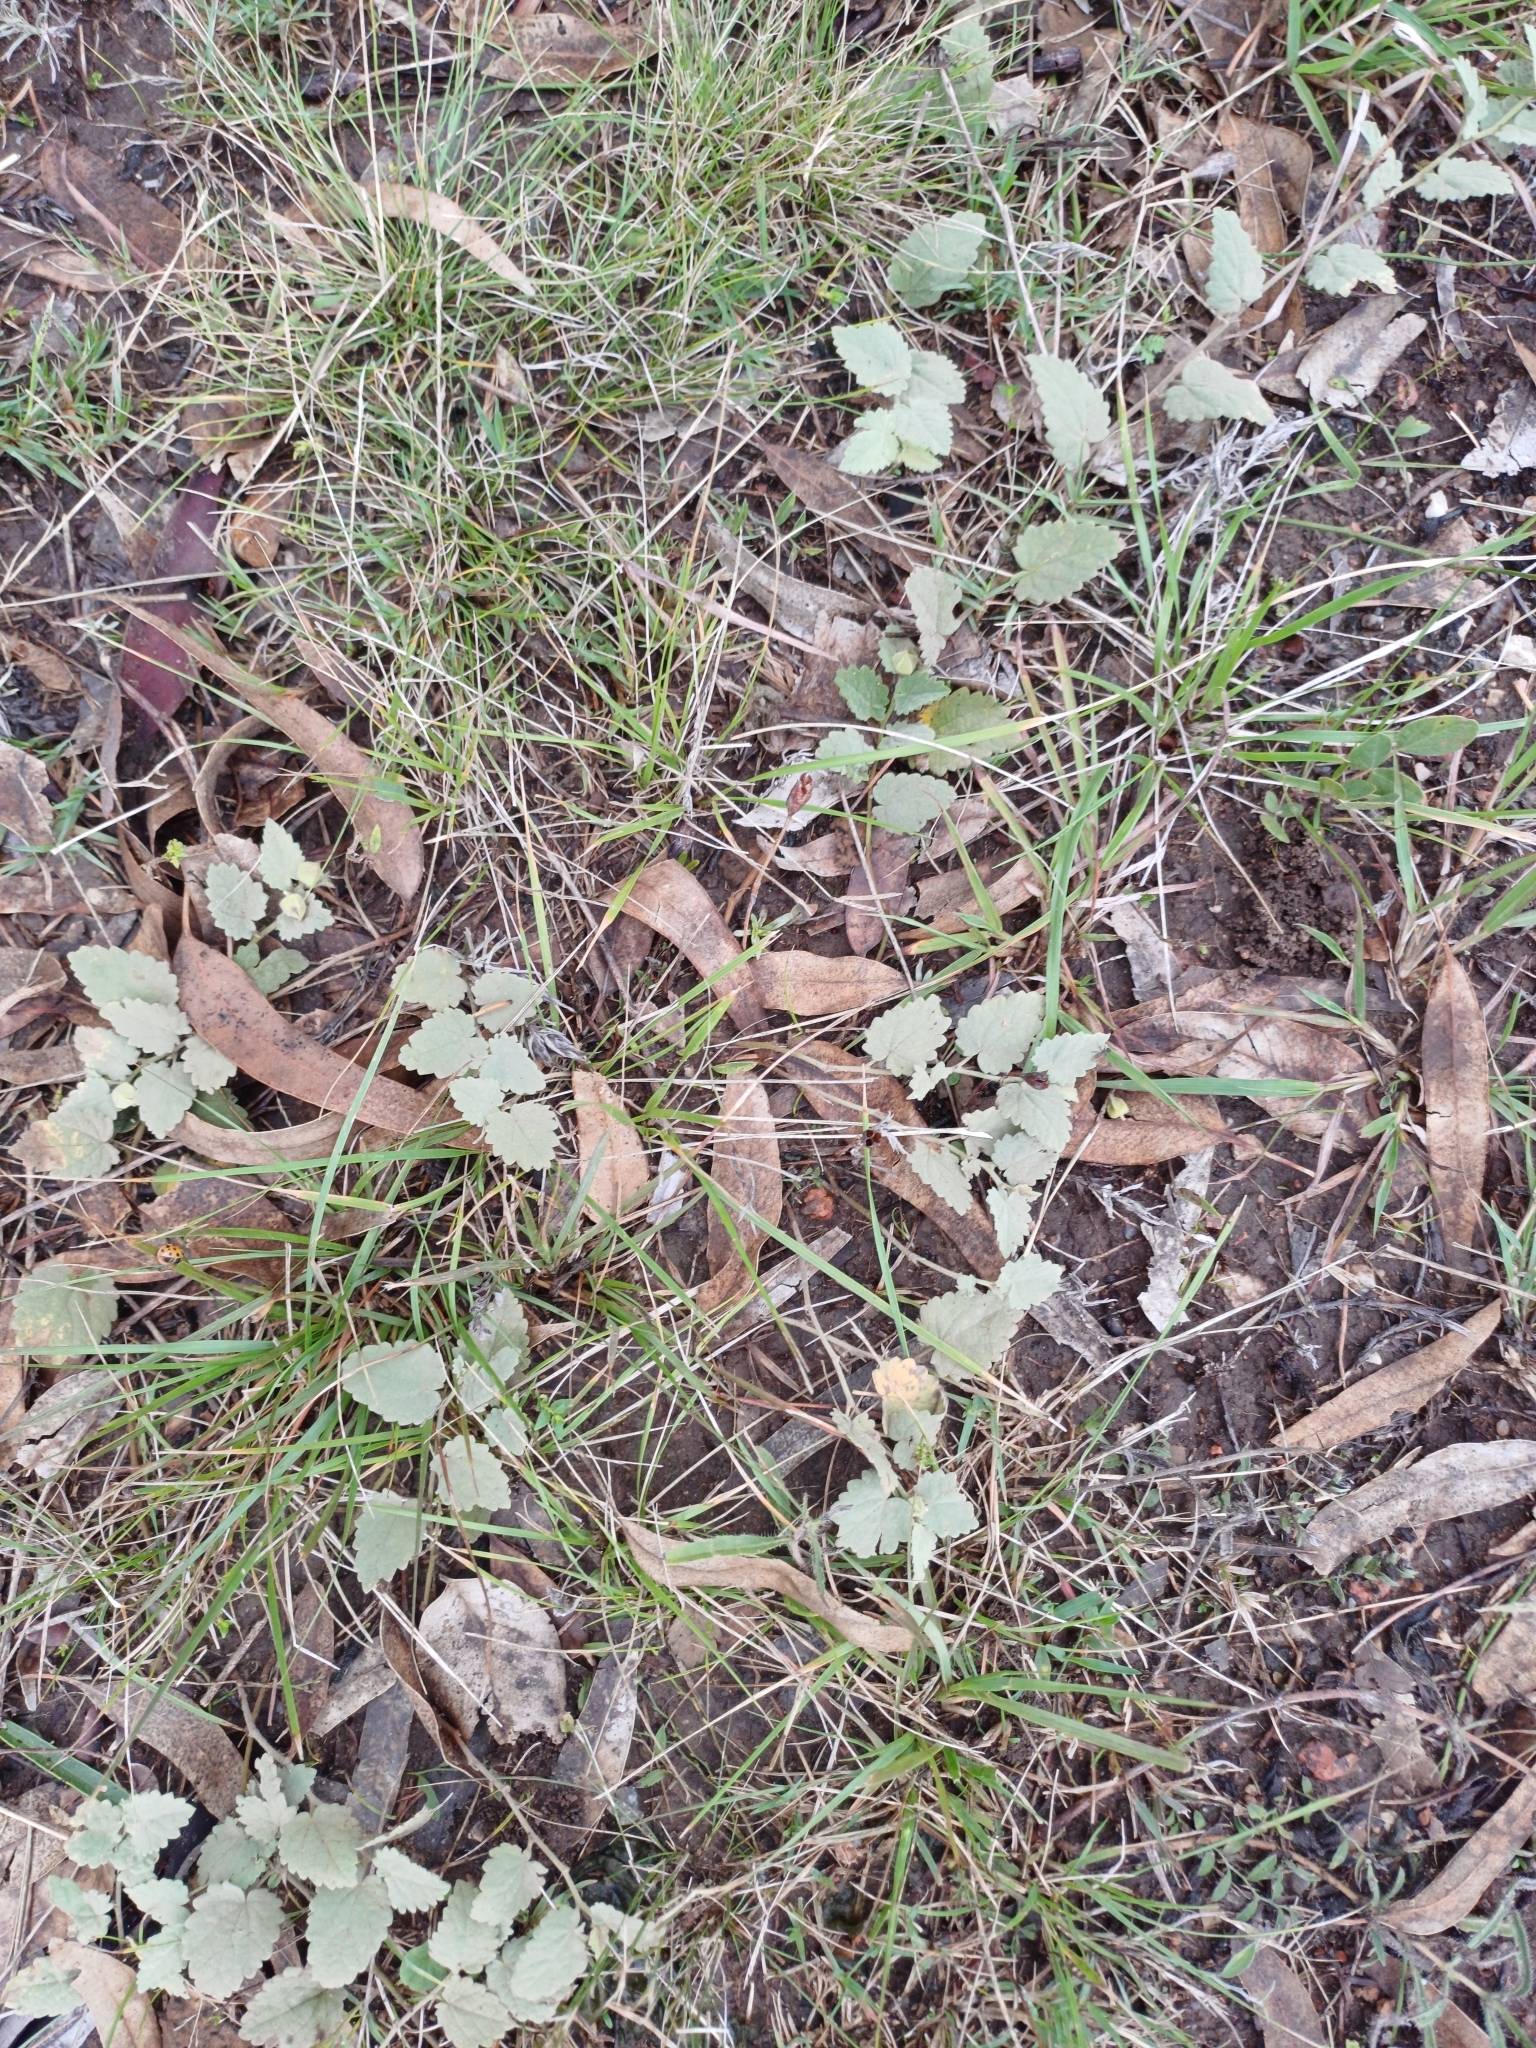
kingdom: Plantae
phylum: Tracheophyta
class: Magnoliopsida
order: Malvales
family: Malvaceae
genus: Krapovickasia
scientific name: Krapovickasia flavescens
